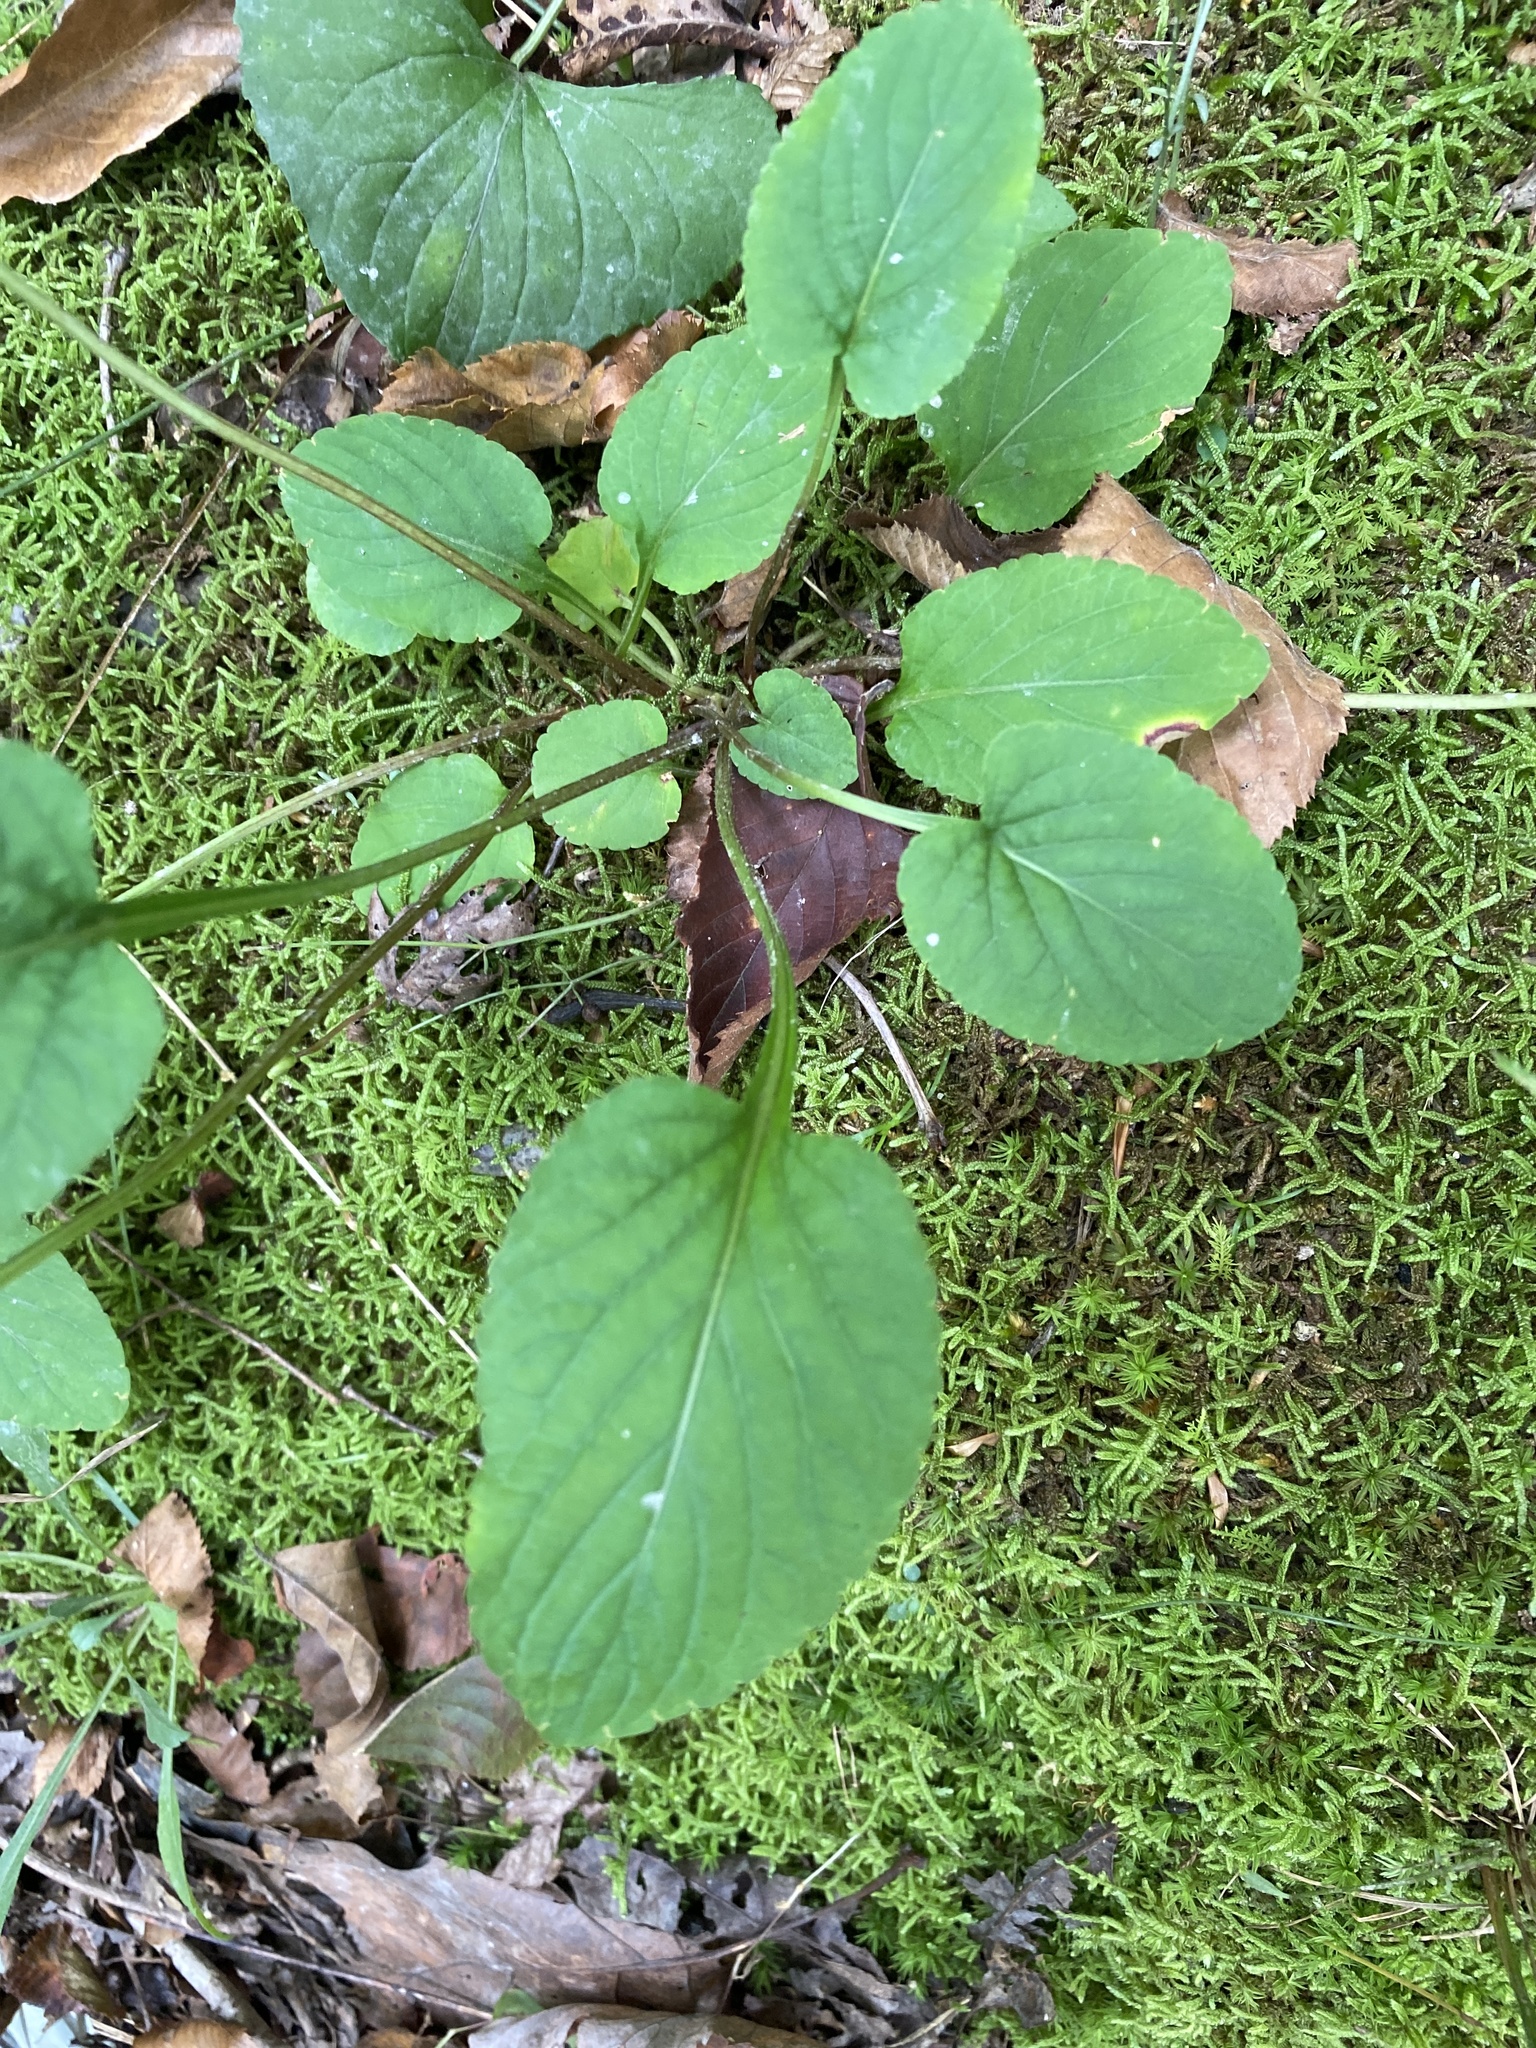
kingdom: Plantae
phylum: Tracheophyta
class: Magnoliopsida
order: Malpighiales
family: Violaceae
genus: Viola
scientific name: Viola primulifolia
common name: Primrose-leaf violet
